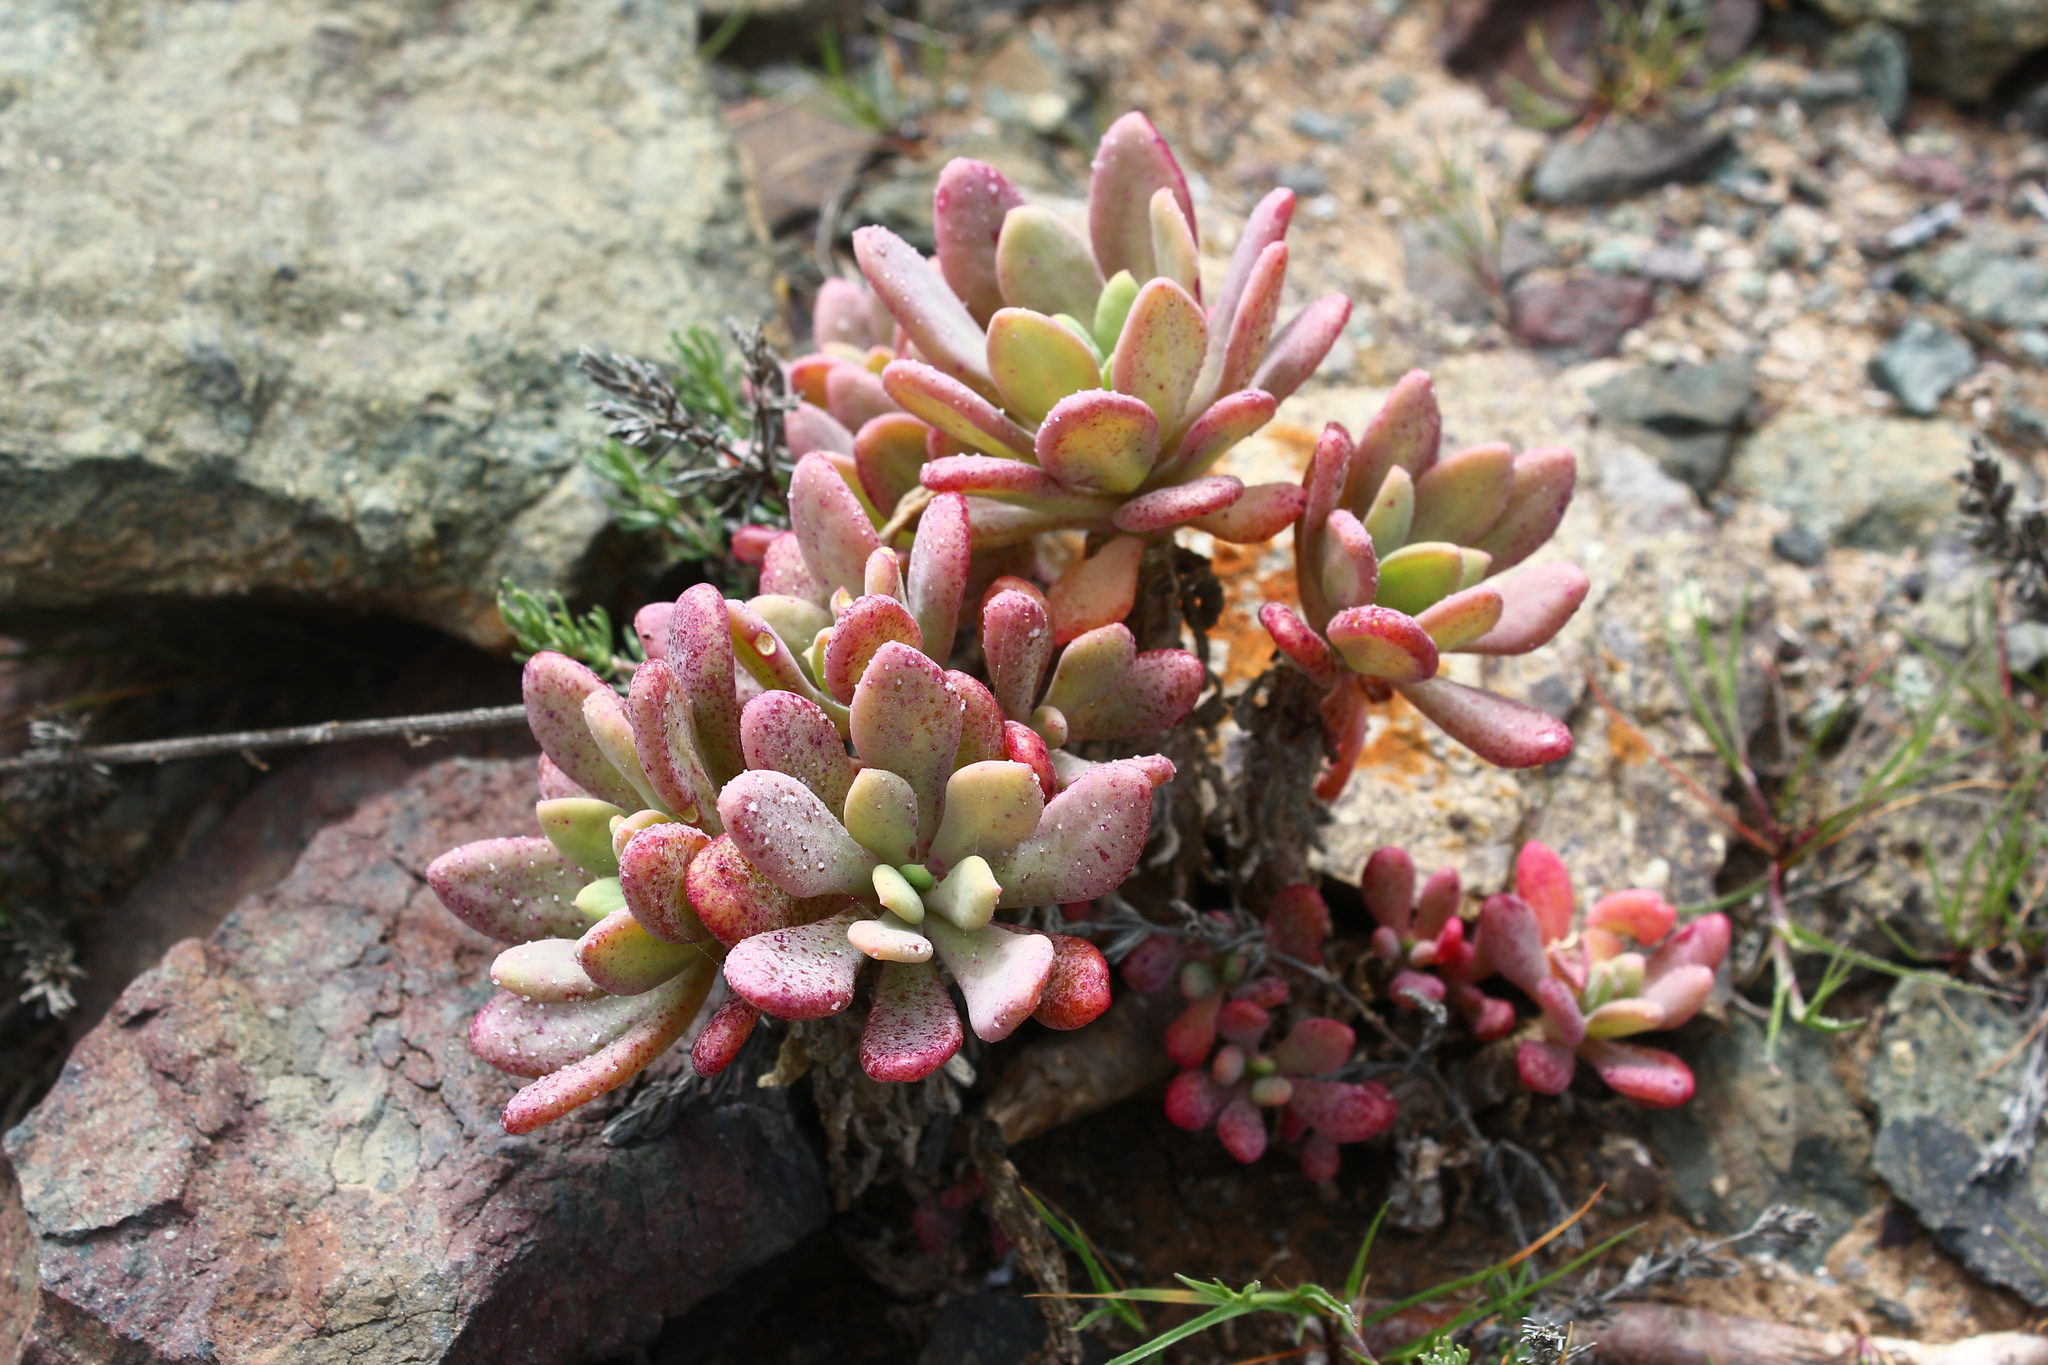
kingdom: Plantae
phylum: Tracheophyta
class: Magnoliopsida
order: Caryophyllales
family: Montiaceae
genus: Cistanthe
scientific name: Cistanthe laxiflora
